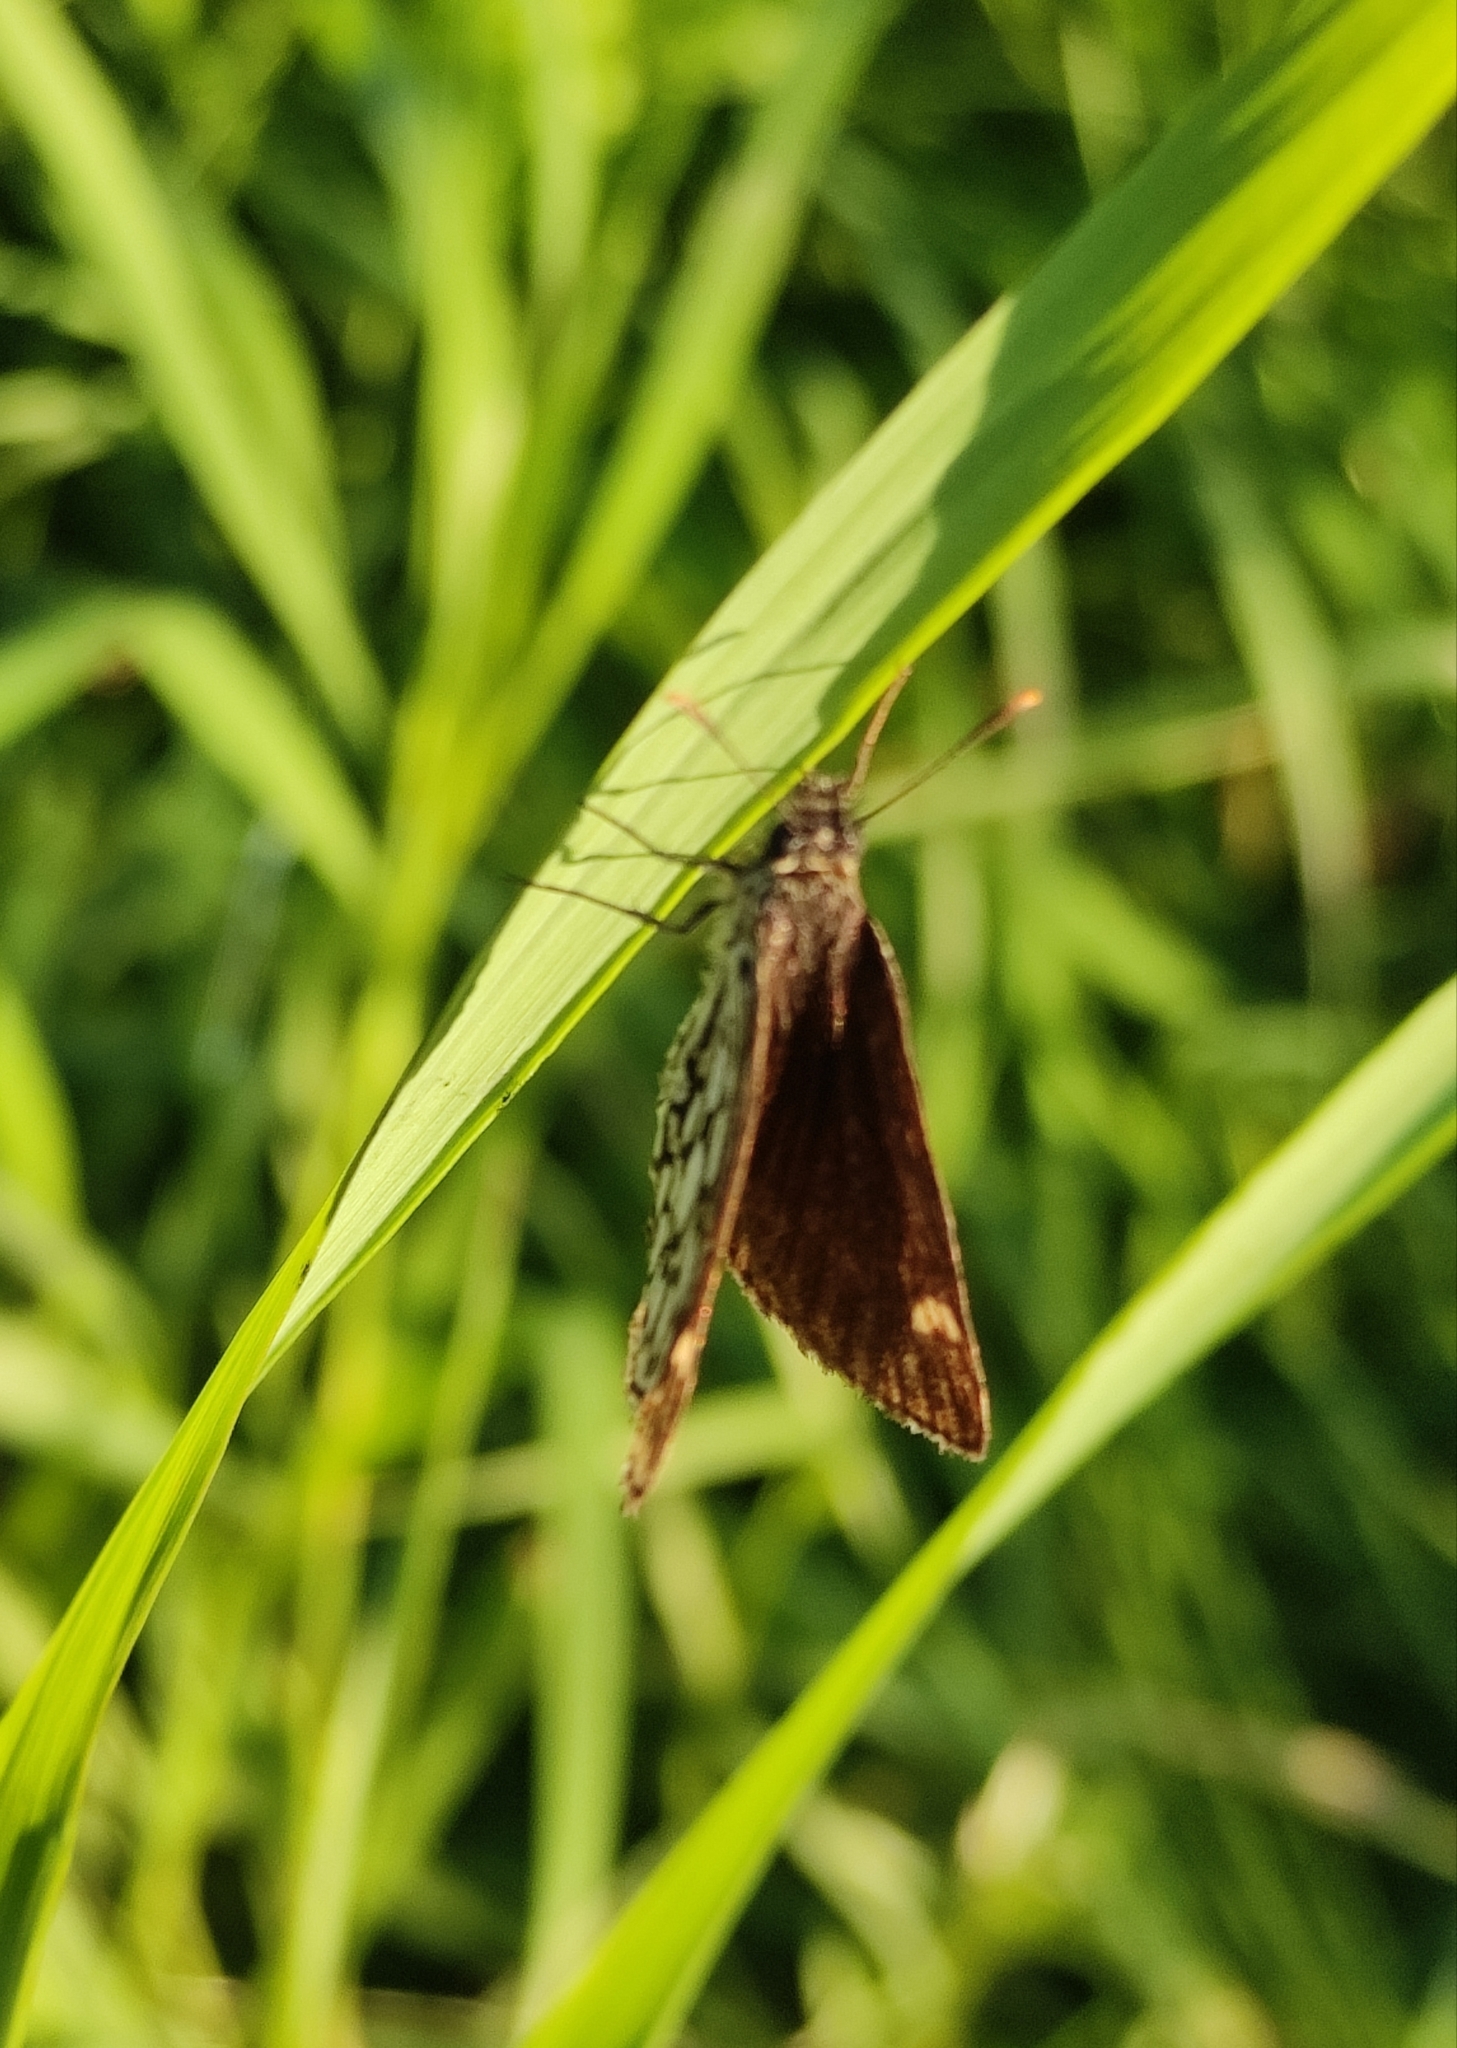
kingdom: Animalia
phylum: Arthropoda
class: Insecta
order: Lepidoptera
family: Hesperiidae
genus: Heteropterus
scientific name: Heteropterus morpheus
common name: Large chequered skipper
